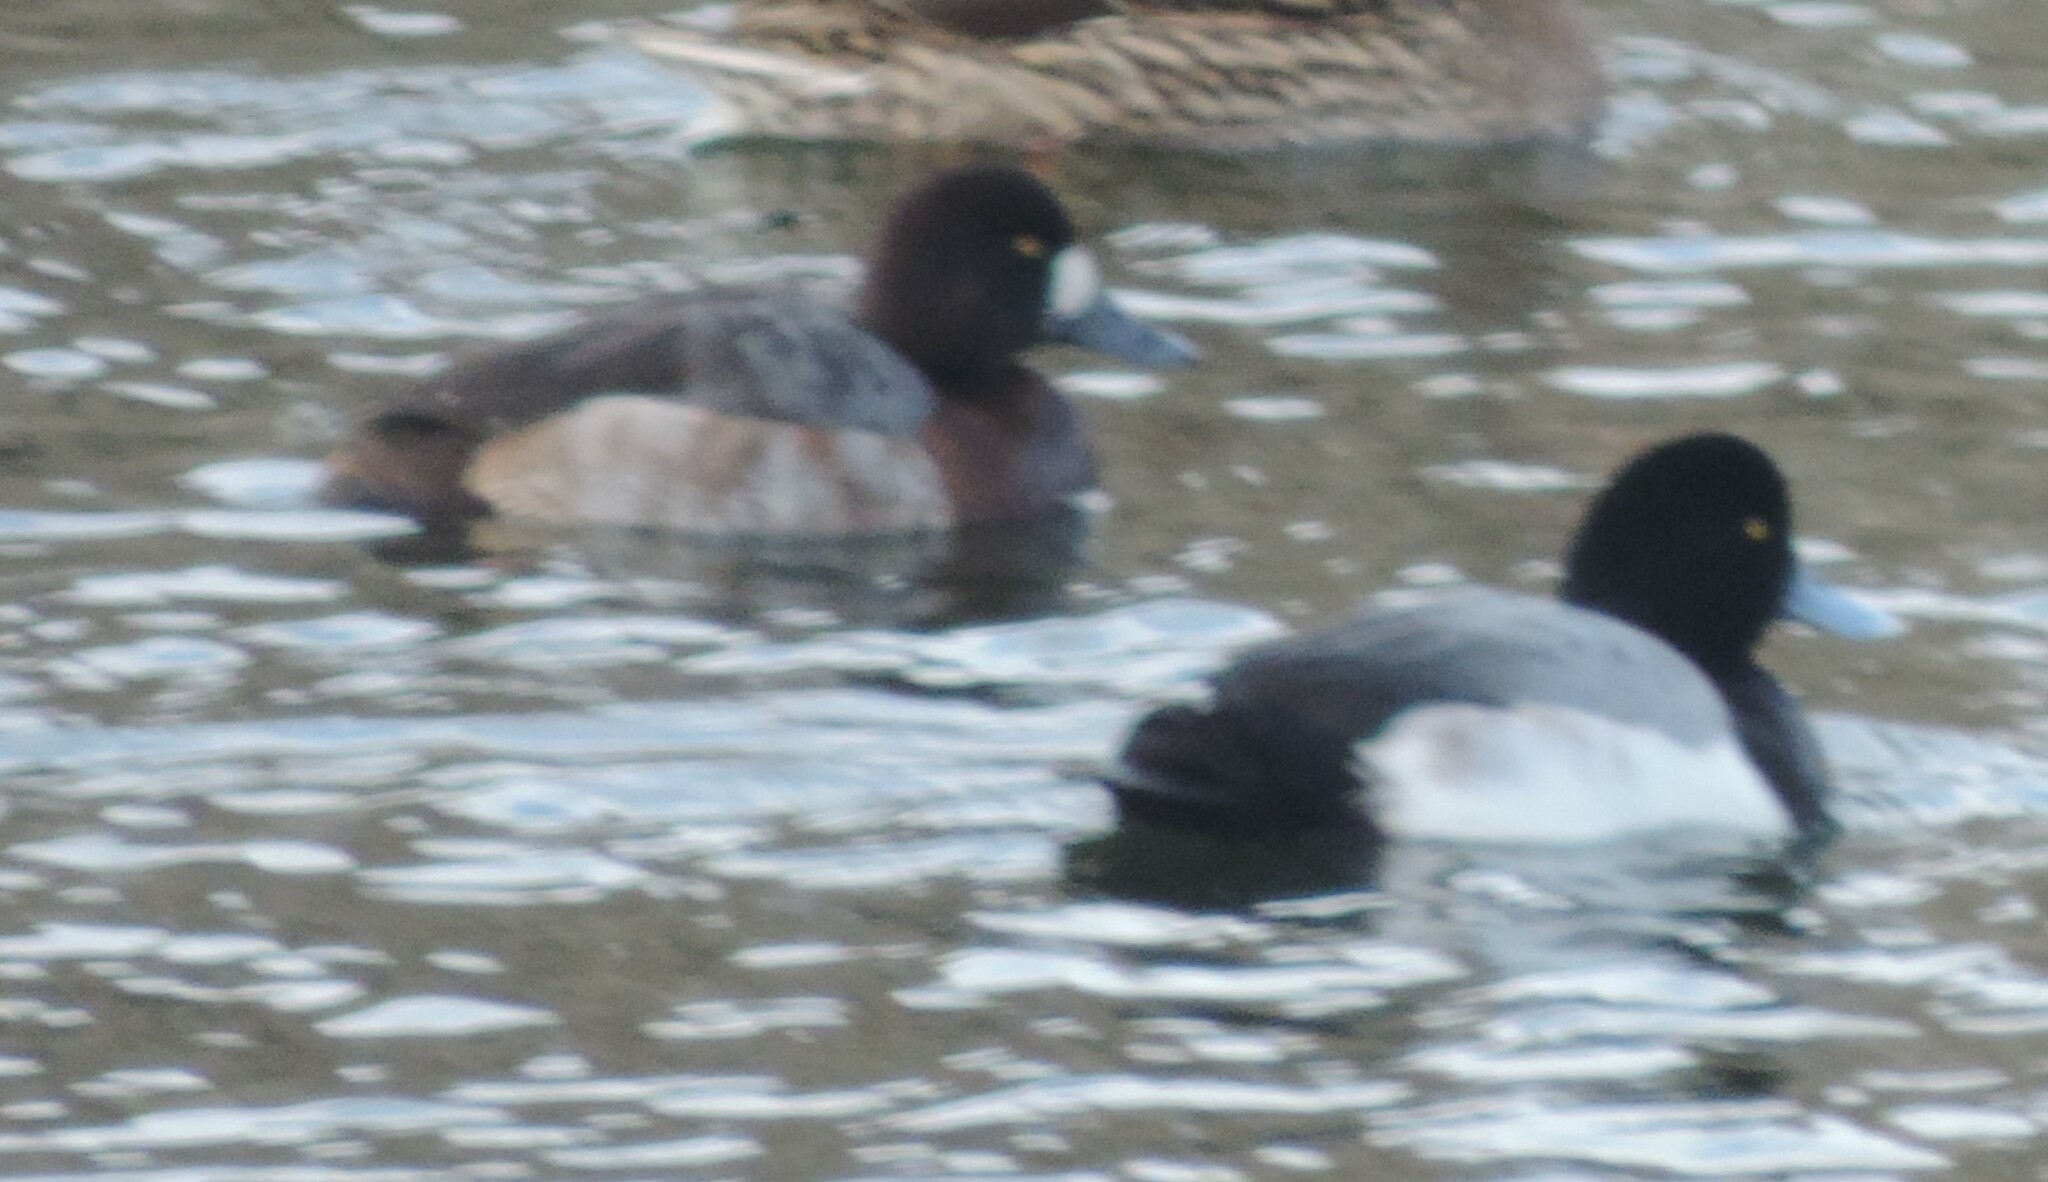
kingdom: Animalia
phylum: Chordata
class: Aves
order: Anseriformes
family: Anatidae
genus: Aythya
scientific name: Aythya marila
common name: Greater scaup
